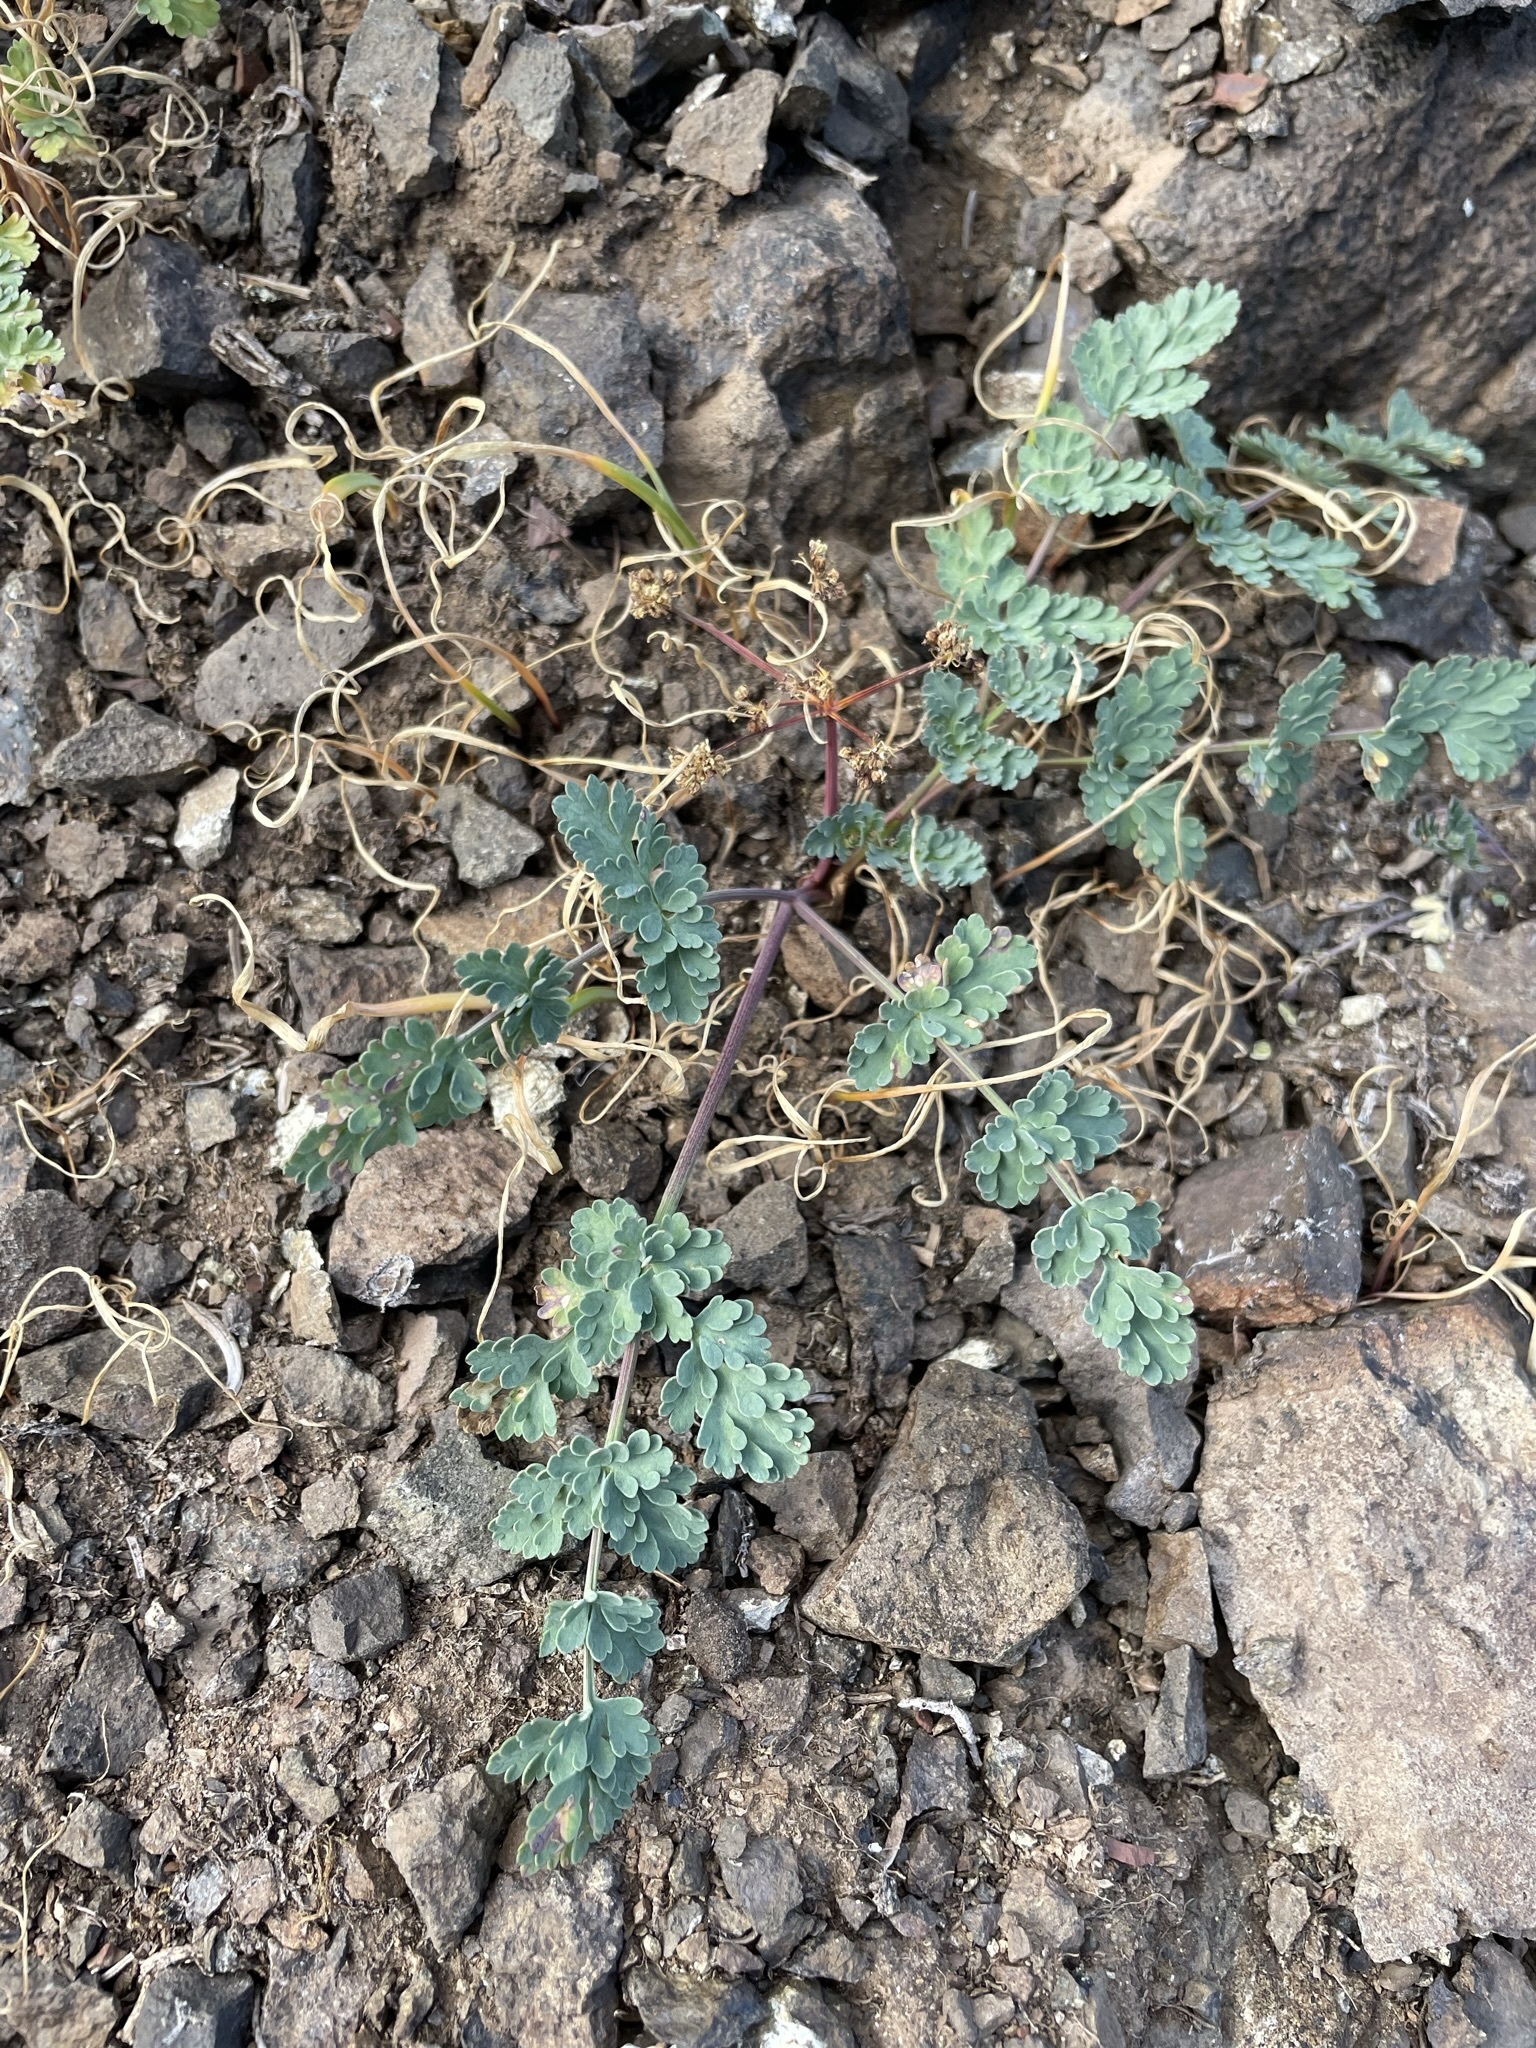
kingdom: Plantae
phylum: Tracheophyta
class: Magnoliopsida
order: Apiales
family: Apiaceae
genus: Lomatium
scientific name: Lomatium martindalei
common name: Cascade desert-parsley
